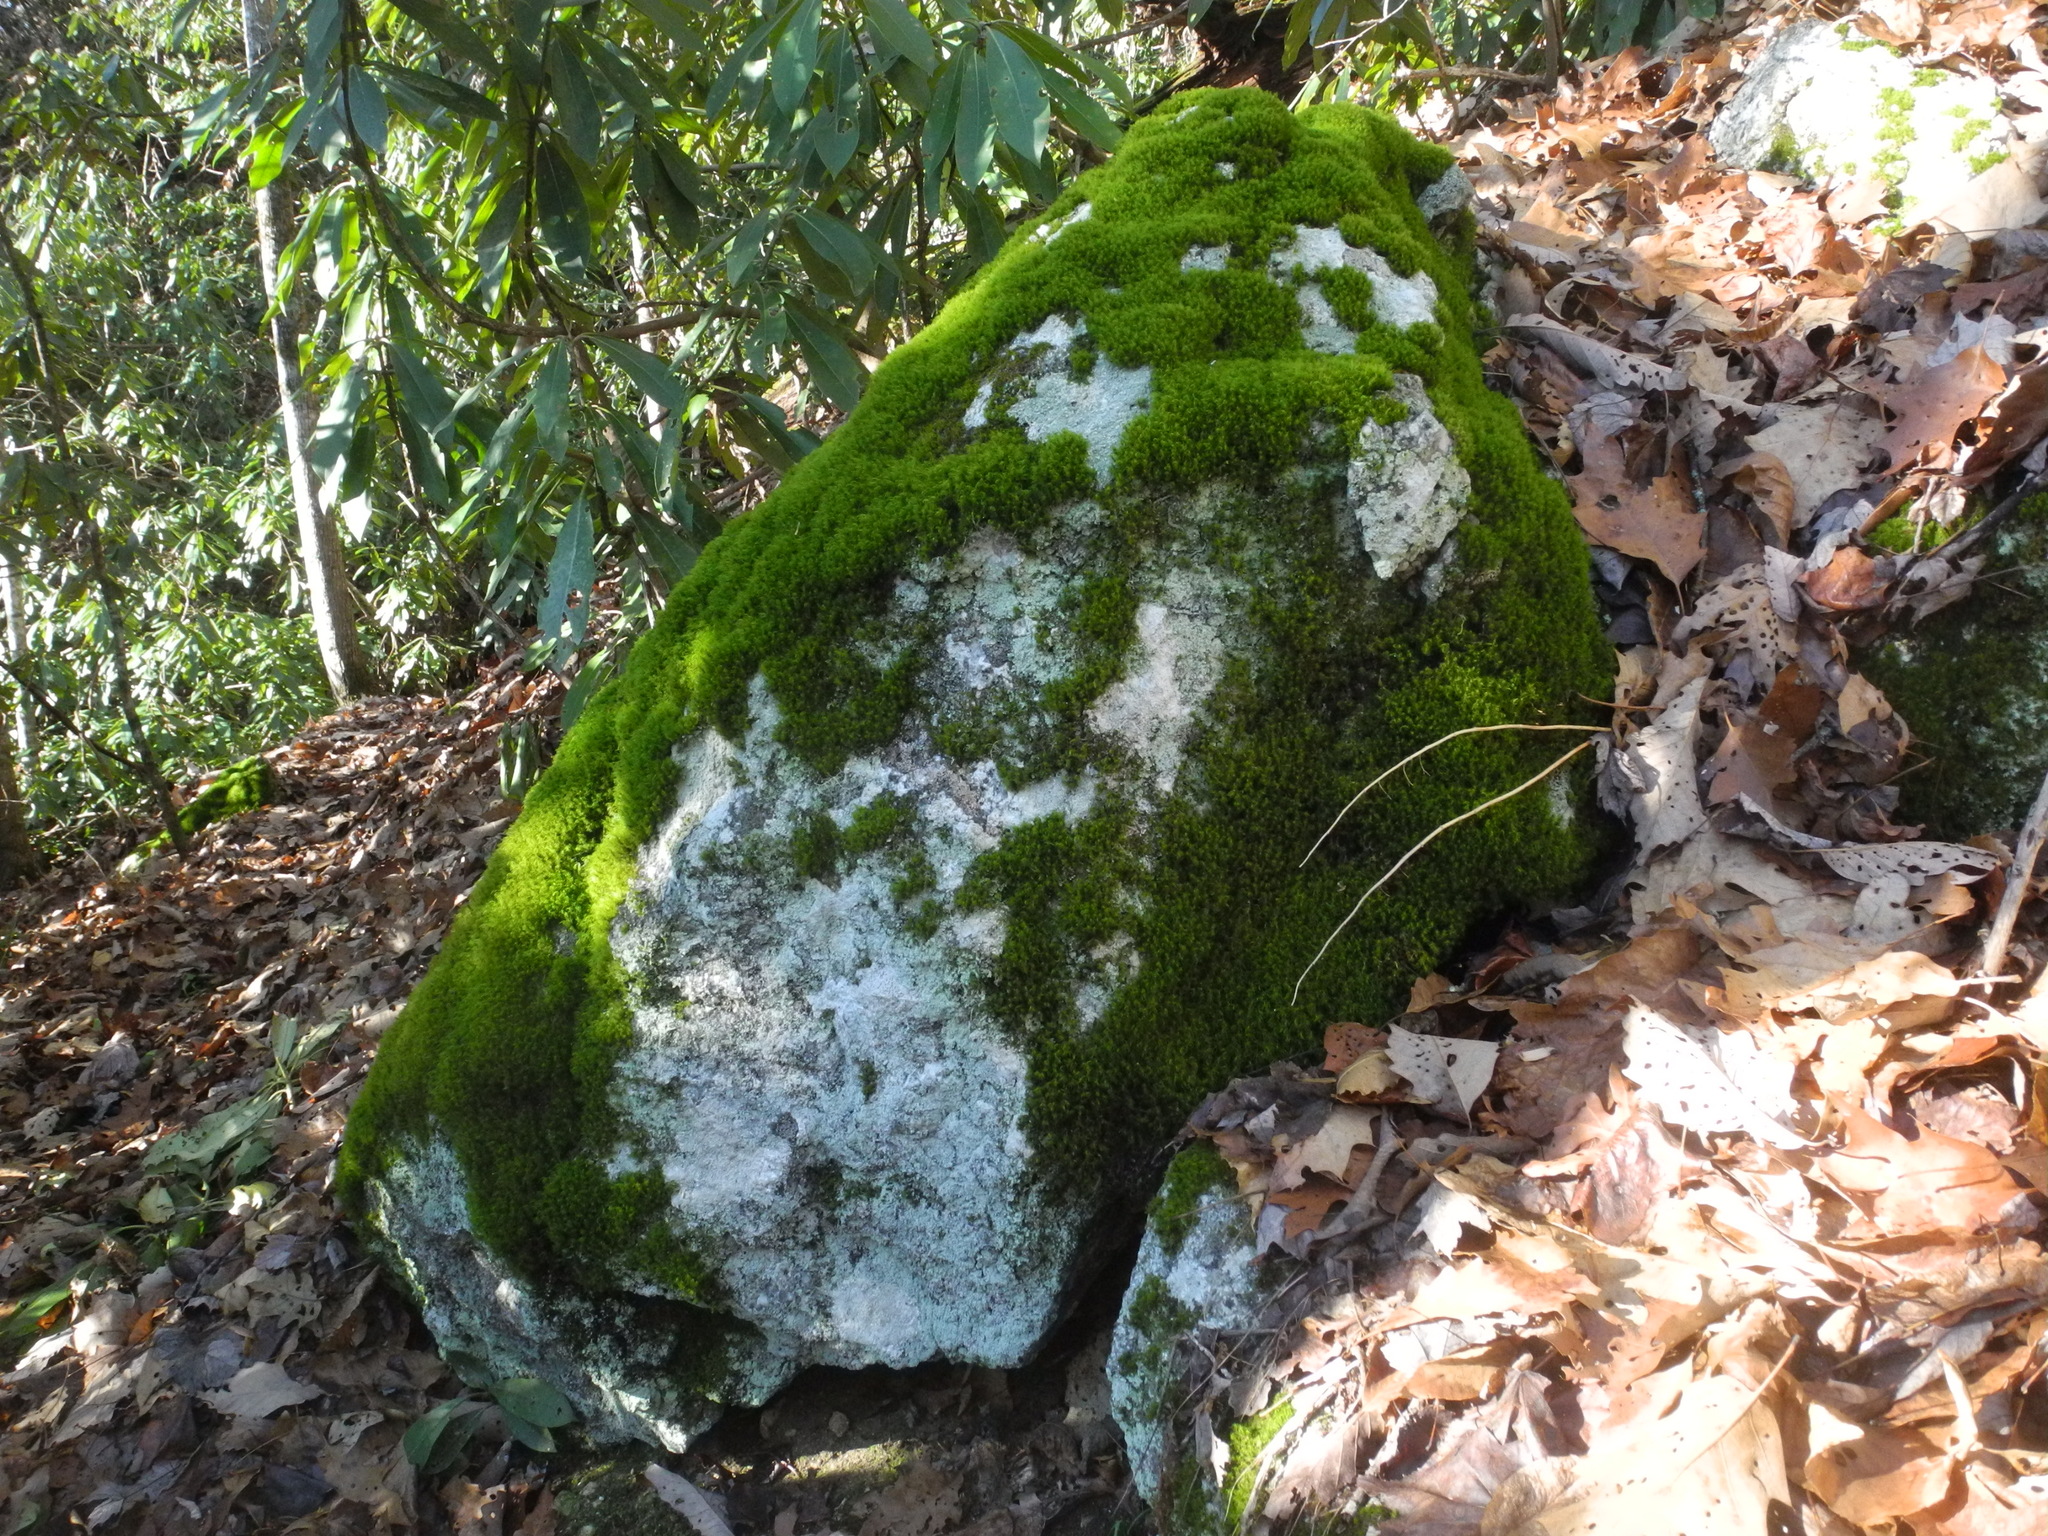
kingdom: Plantae
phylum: Bryophyta
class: Bryopsida
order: Bartramiales
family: Bartramiaceae
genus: Bartramia
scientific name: Bartramia ithyphylla
